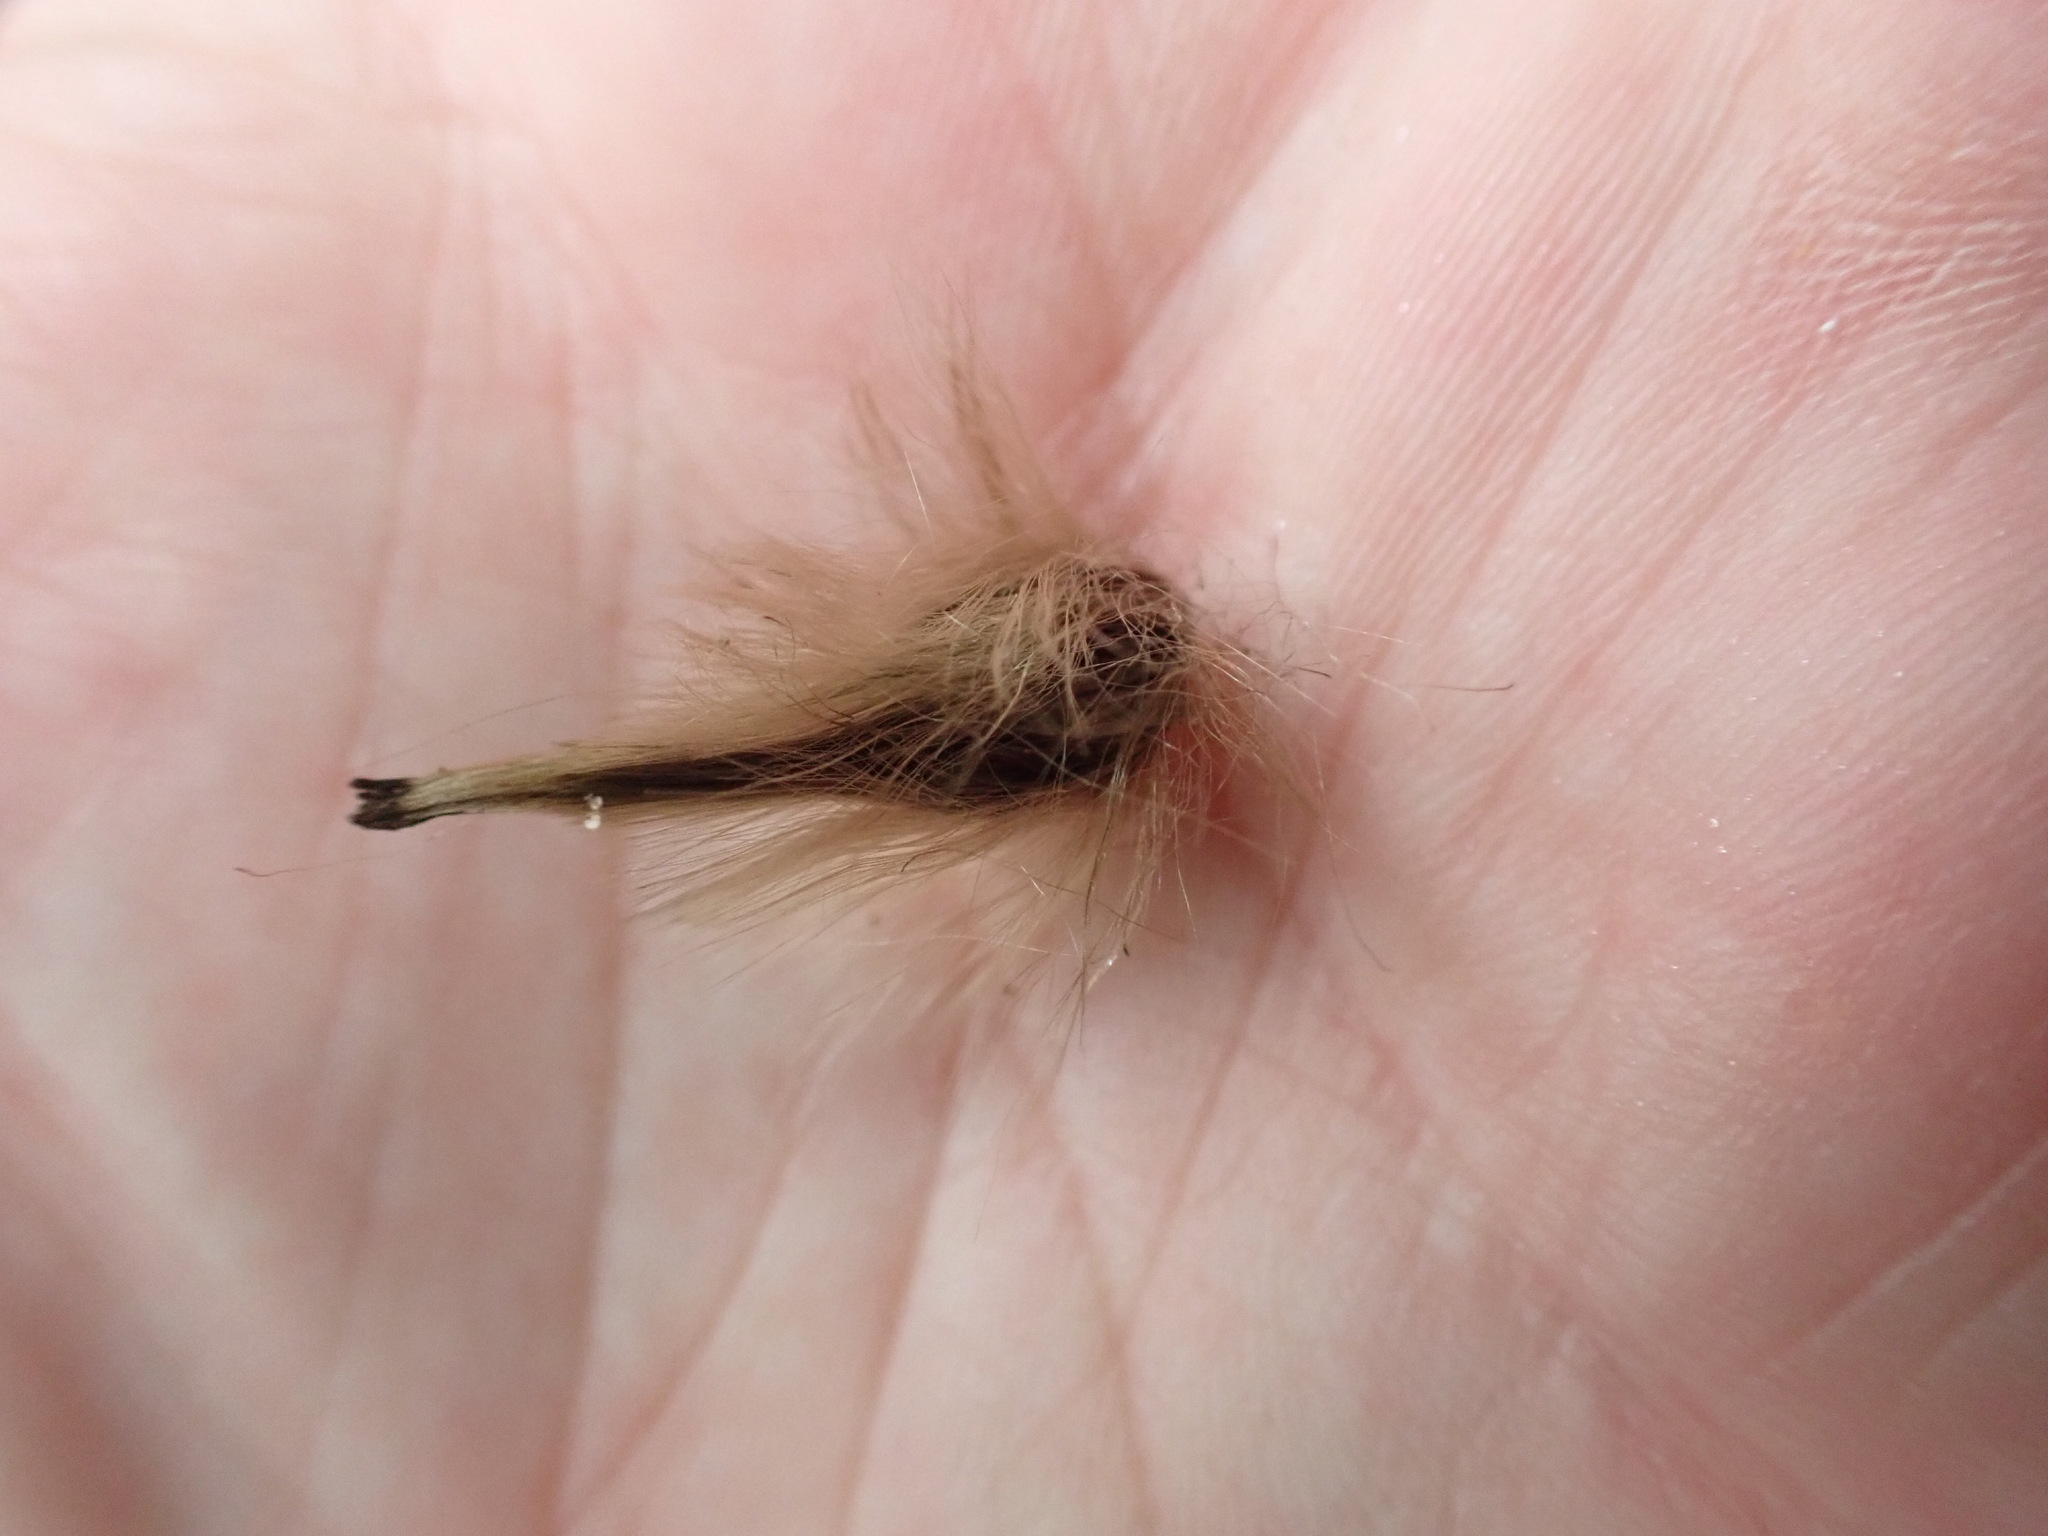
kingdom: Plantae
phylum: Tracheophyta
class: Magnoliopsida
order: Laurales
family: Atherospermataceae
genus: Laurelia
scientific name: Laurelia novae-zelandiae
